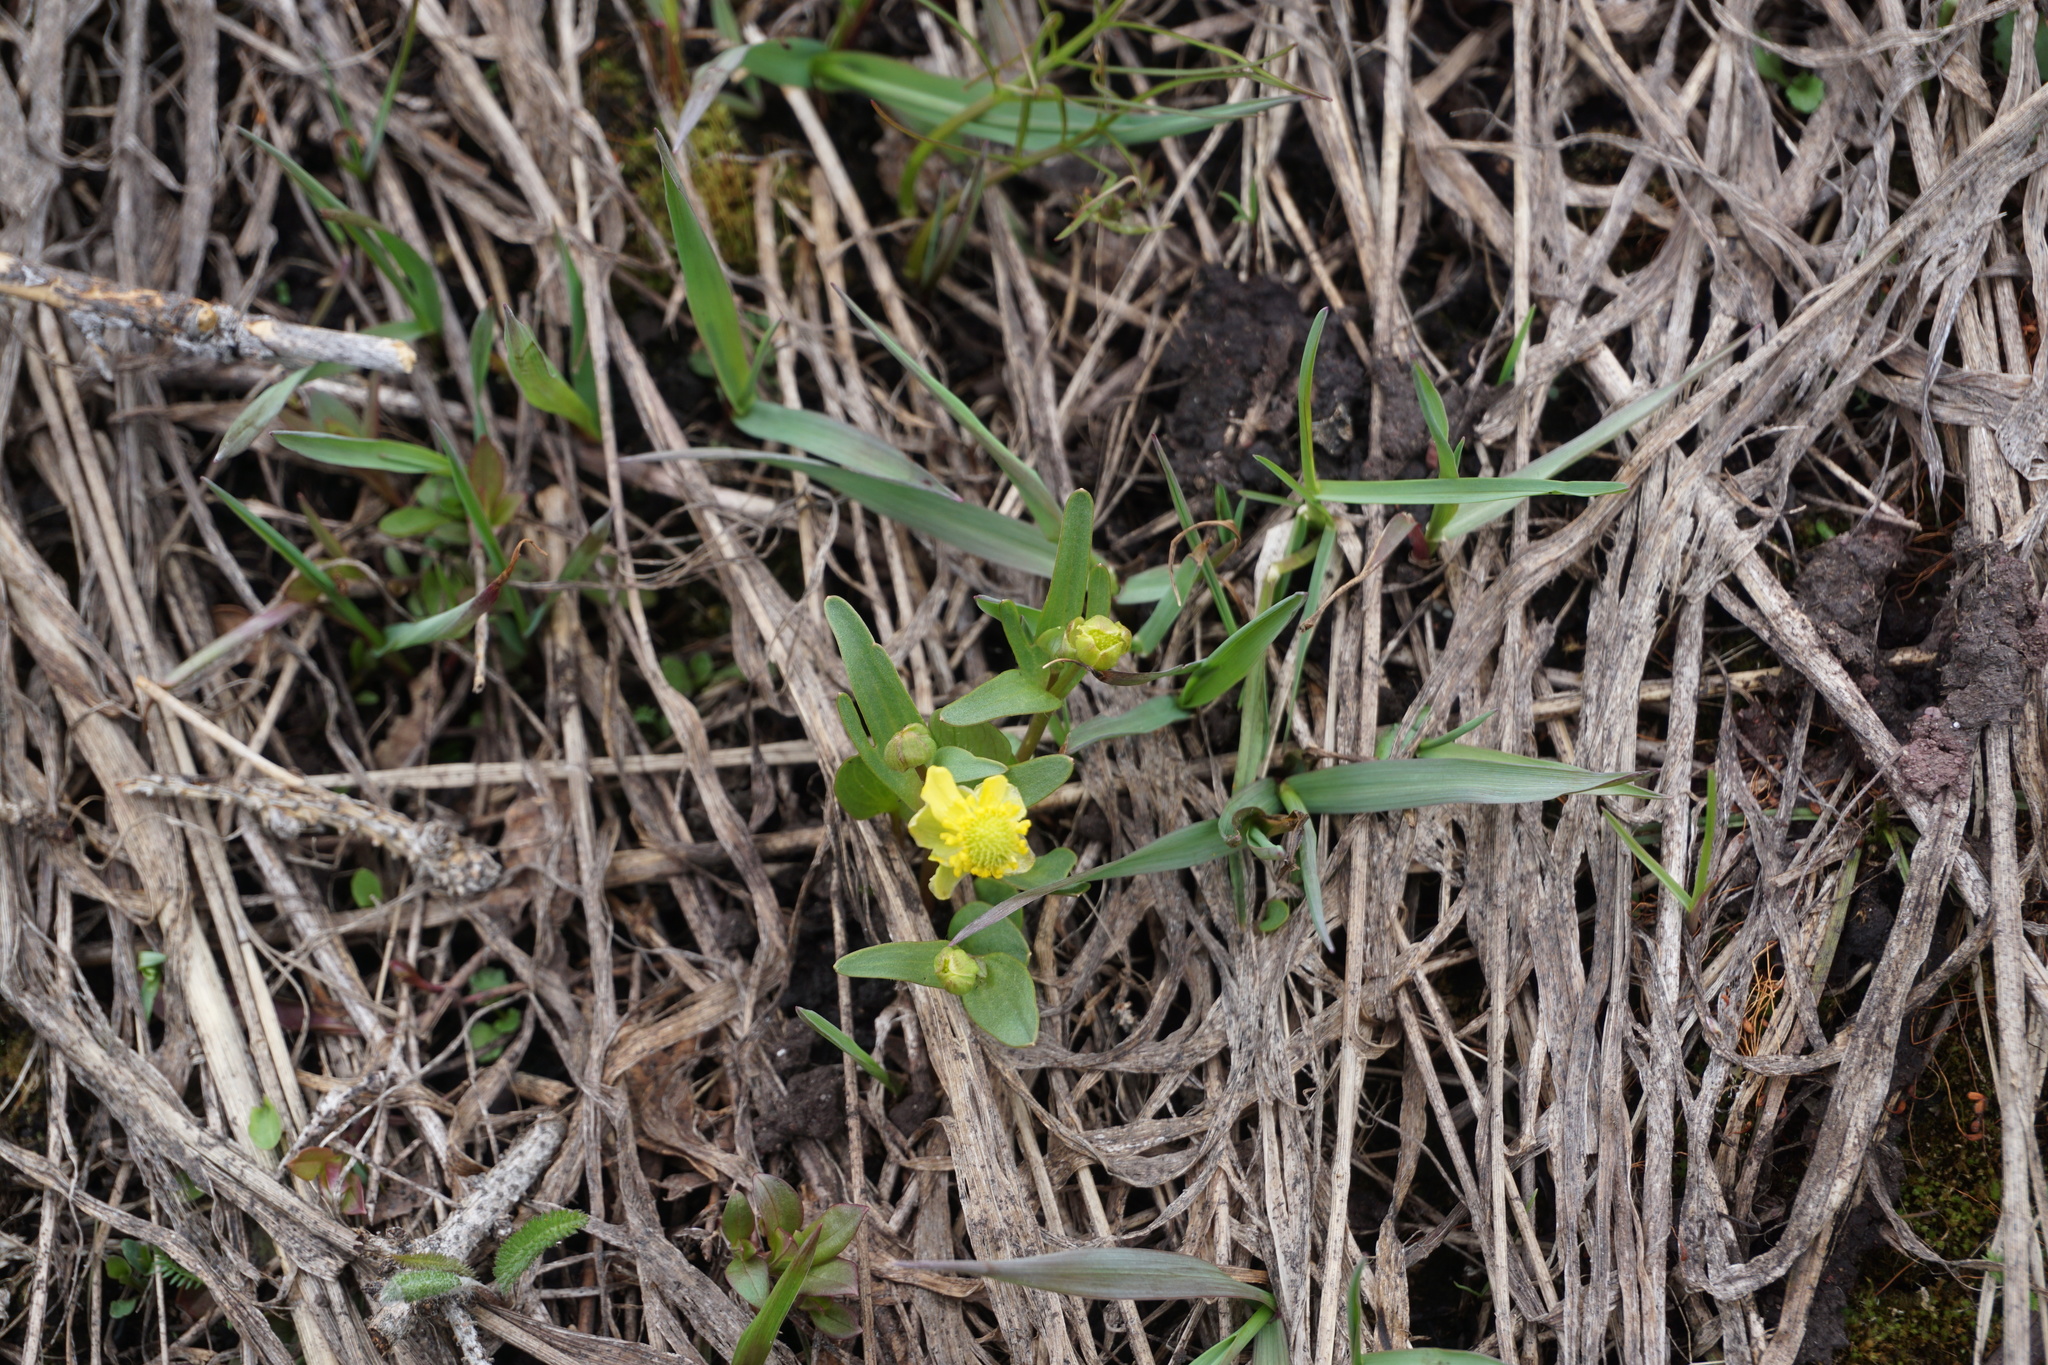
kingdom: Plantae
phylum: Tracheophyta
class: Magnoliopsida
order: Ranunculales
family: Ranunculaceae
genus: Ranunculus
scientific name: Ranunculus glaberrimus
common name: Sagebrush buttercup
